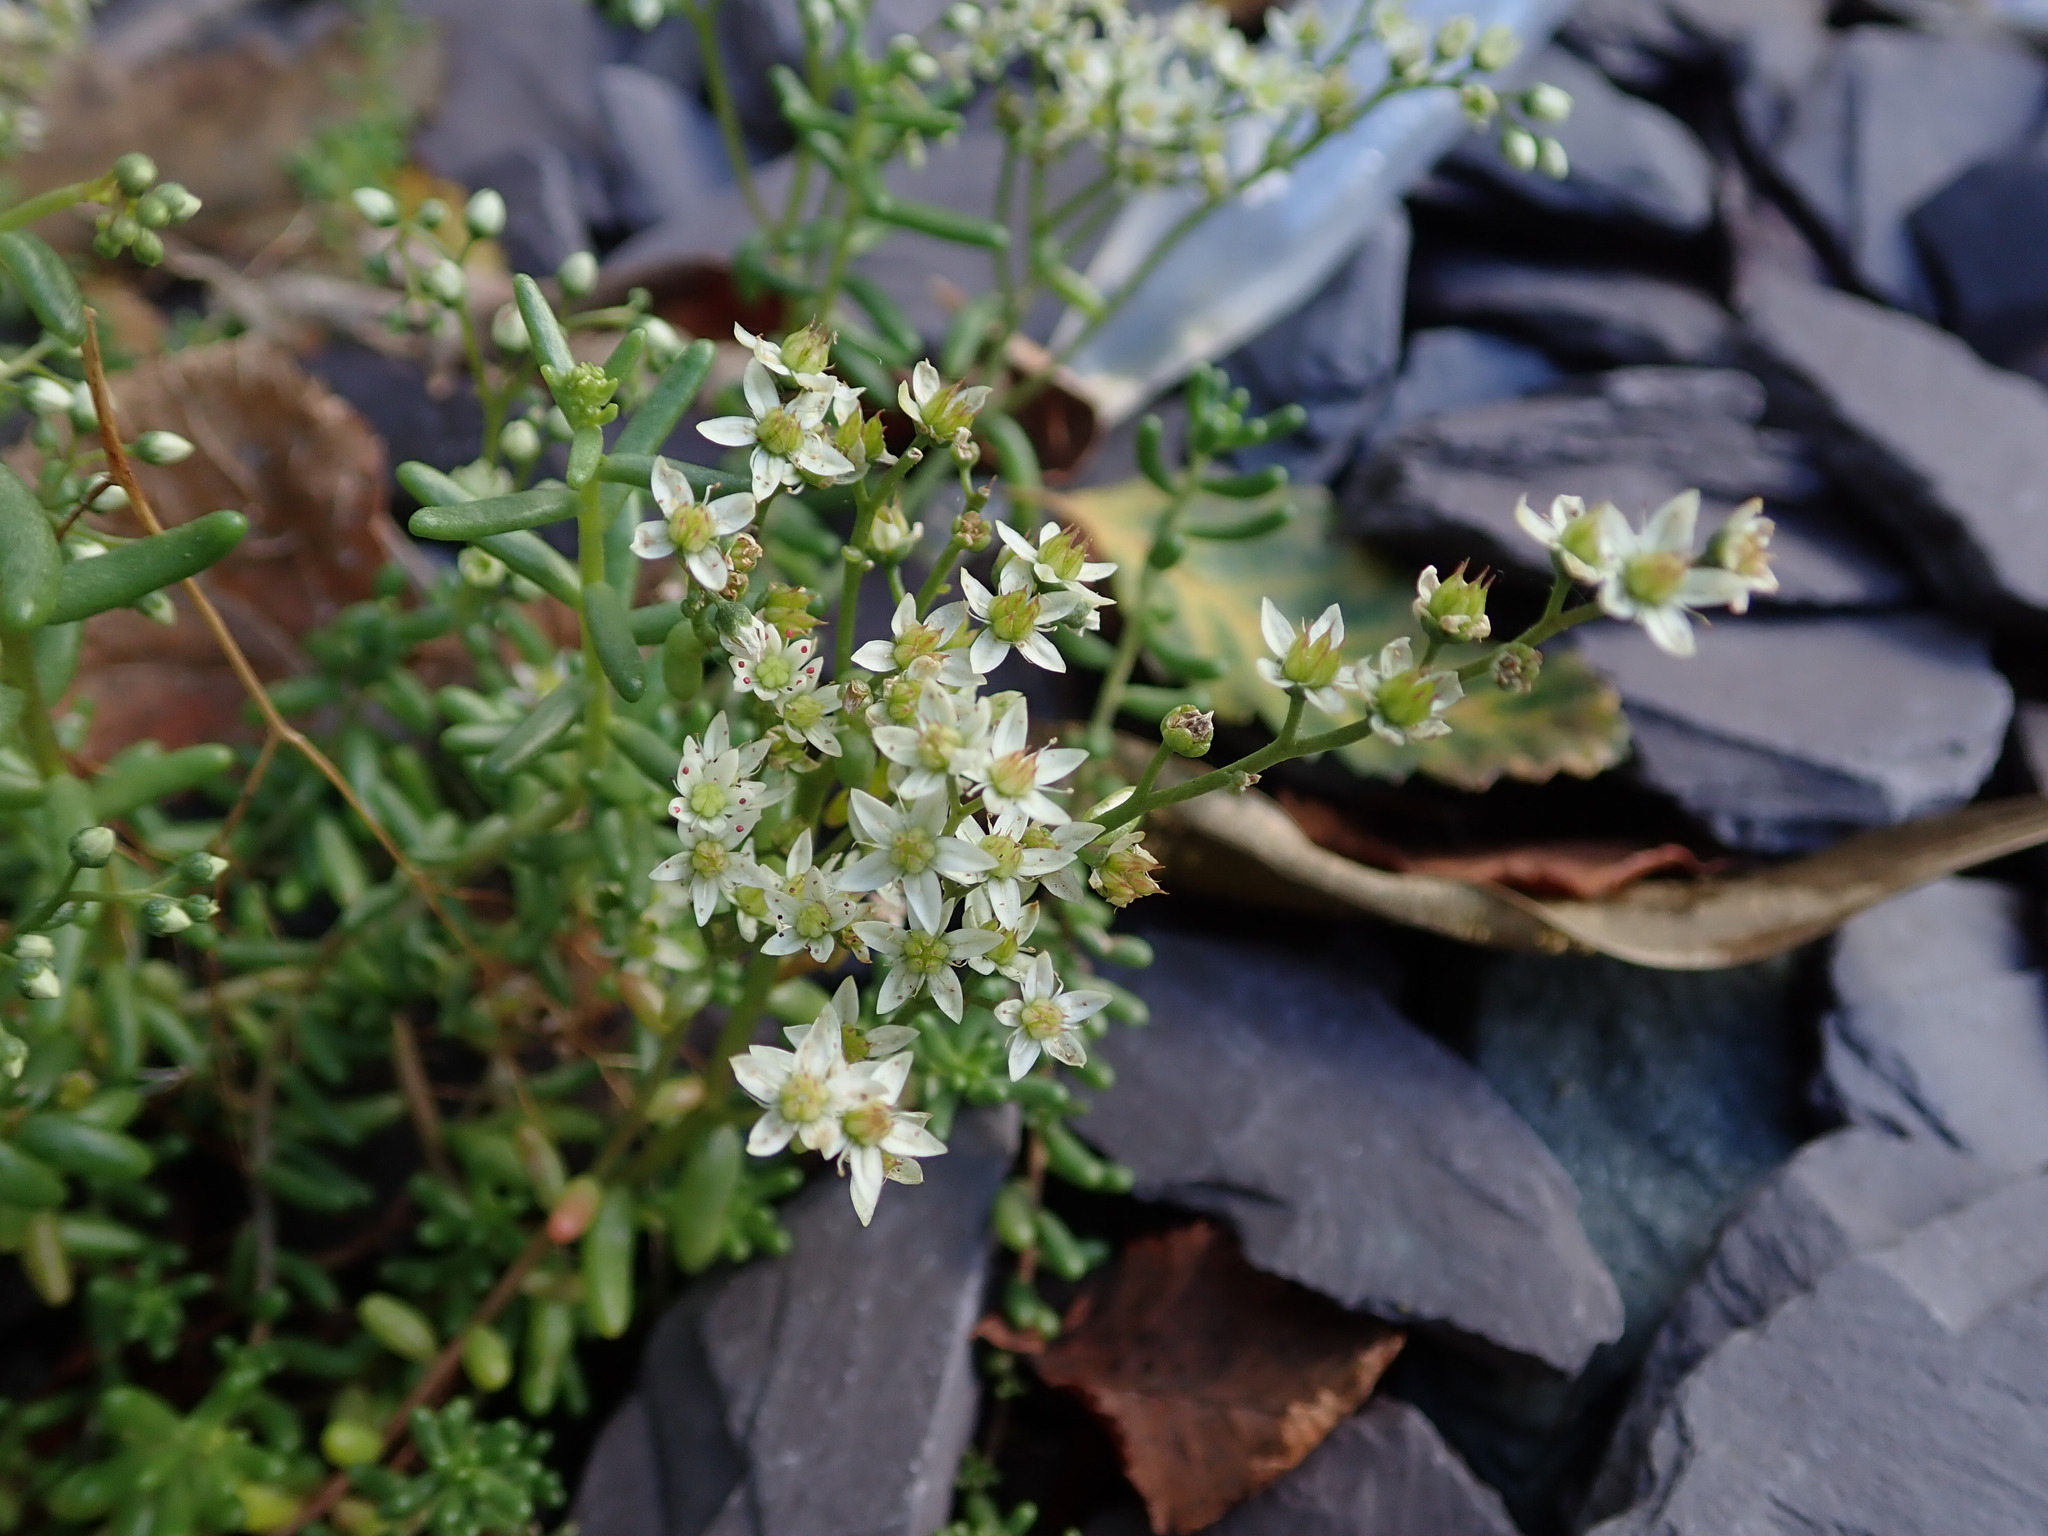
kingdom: Plantae
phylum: Tracheophyta
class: Magnoliopsida
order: Saxifragales
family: Crassulaceae
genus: Sedum
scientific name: Sedum album
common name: White stonecrop
